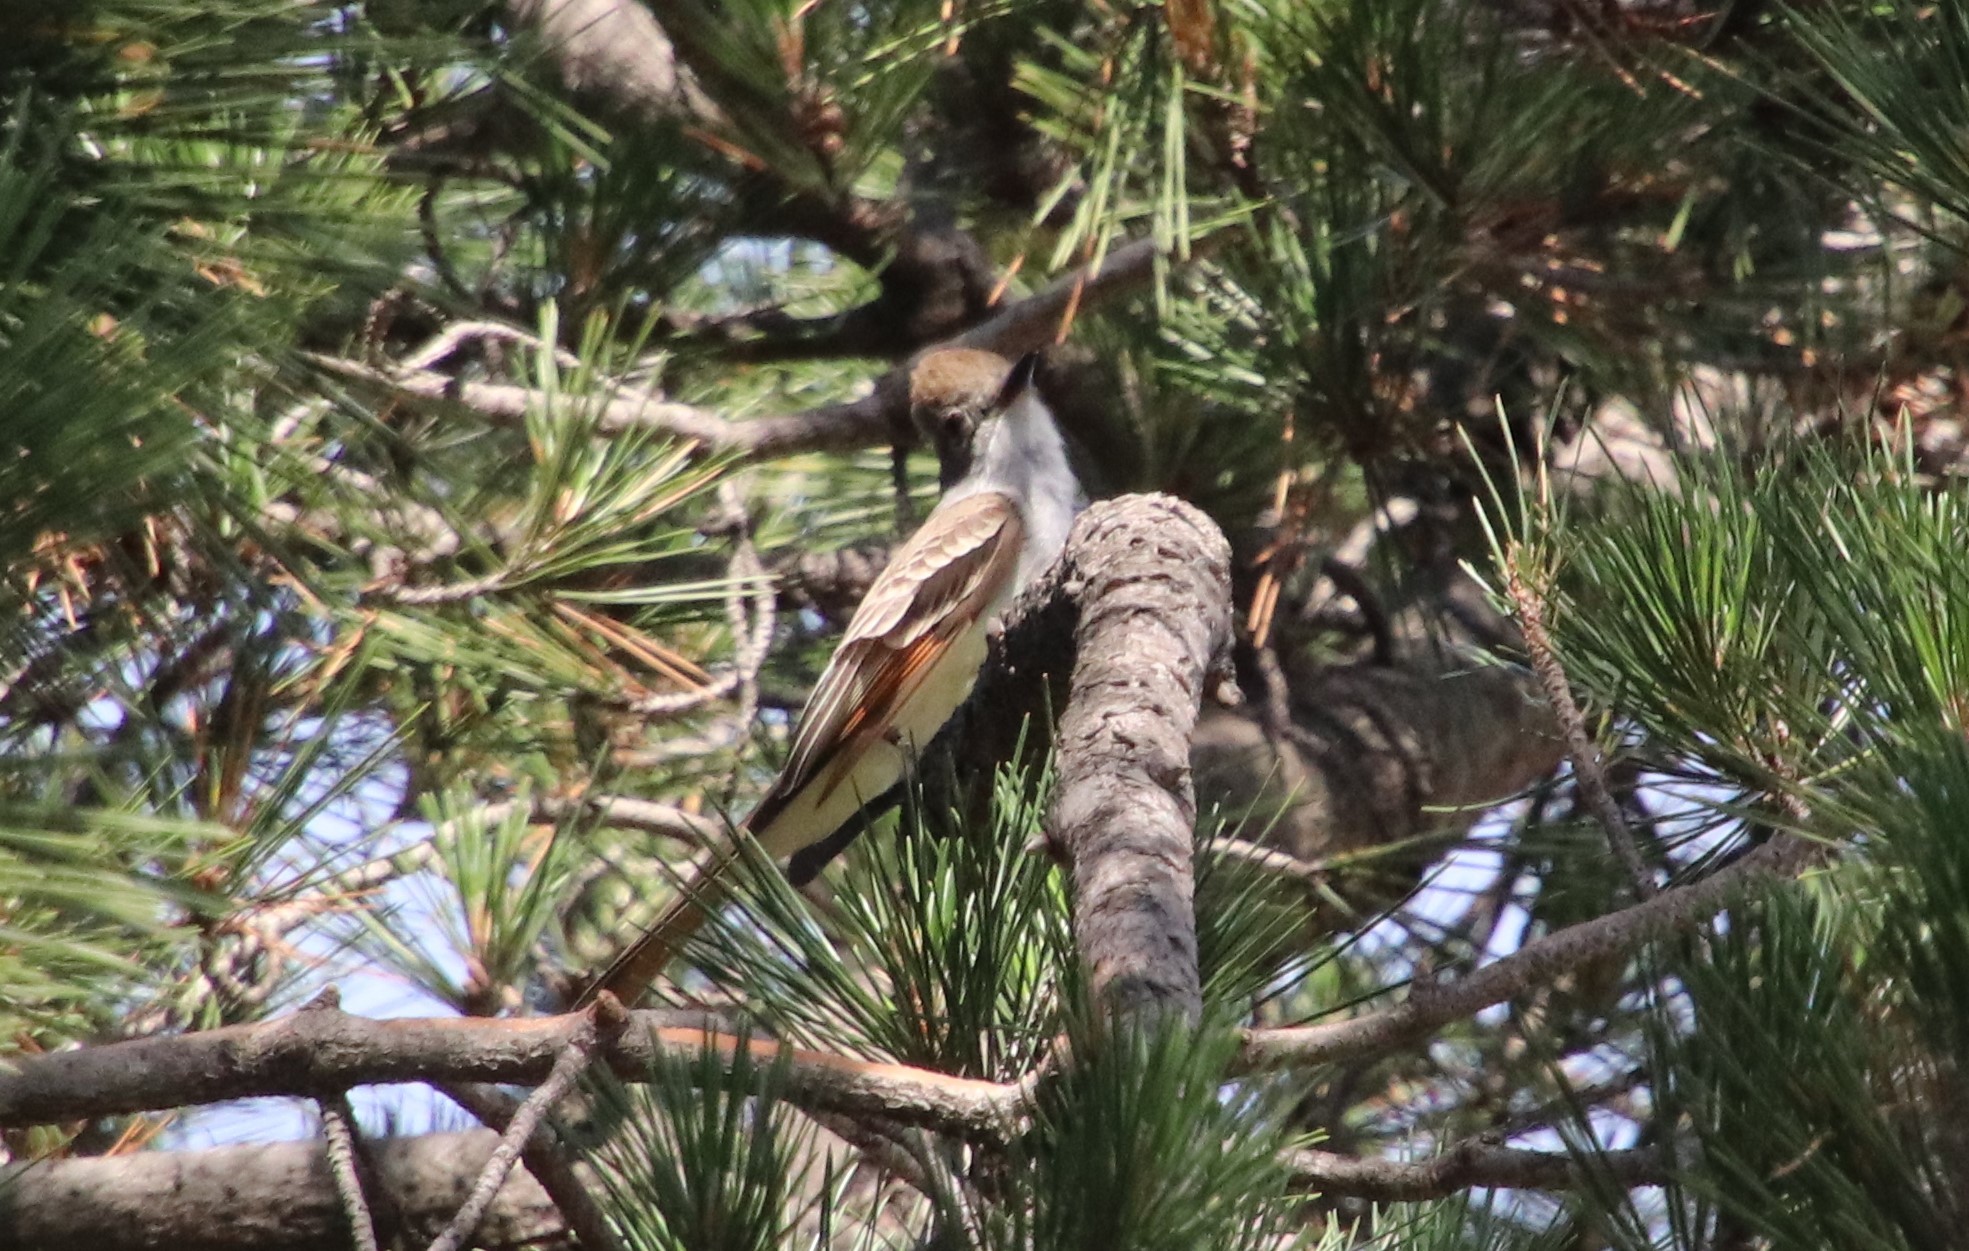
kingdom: Animalia
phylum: Chordata
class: Aves
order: Passeriformes
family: Tyrannidae
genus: Myiarchus
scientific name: Myiarchus cinerascens
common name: Ash-throated flycatcher
